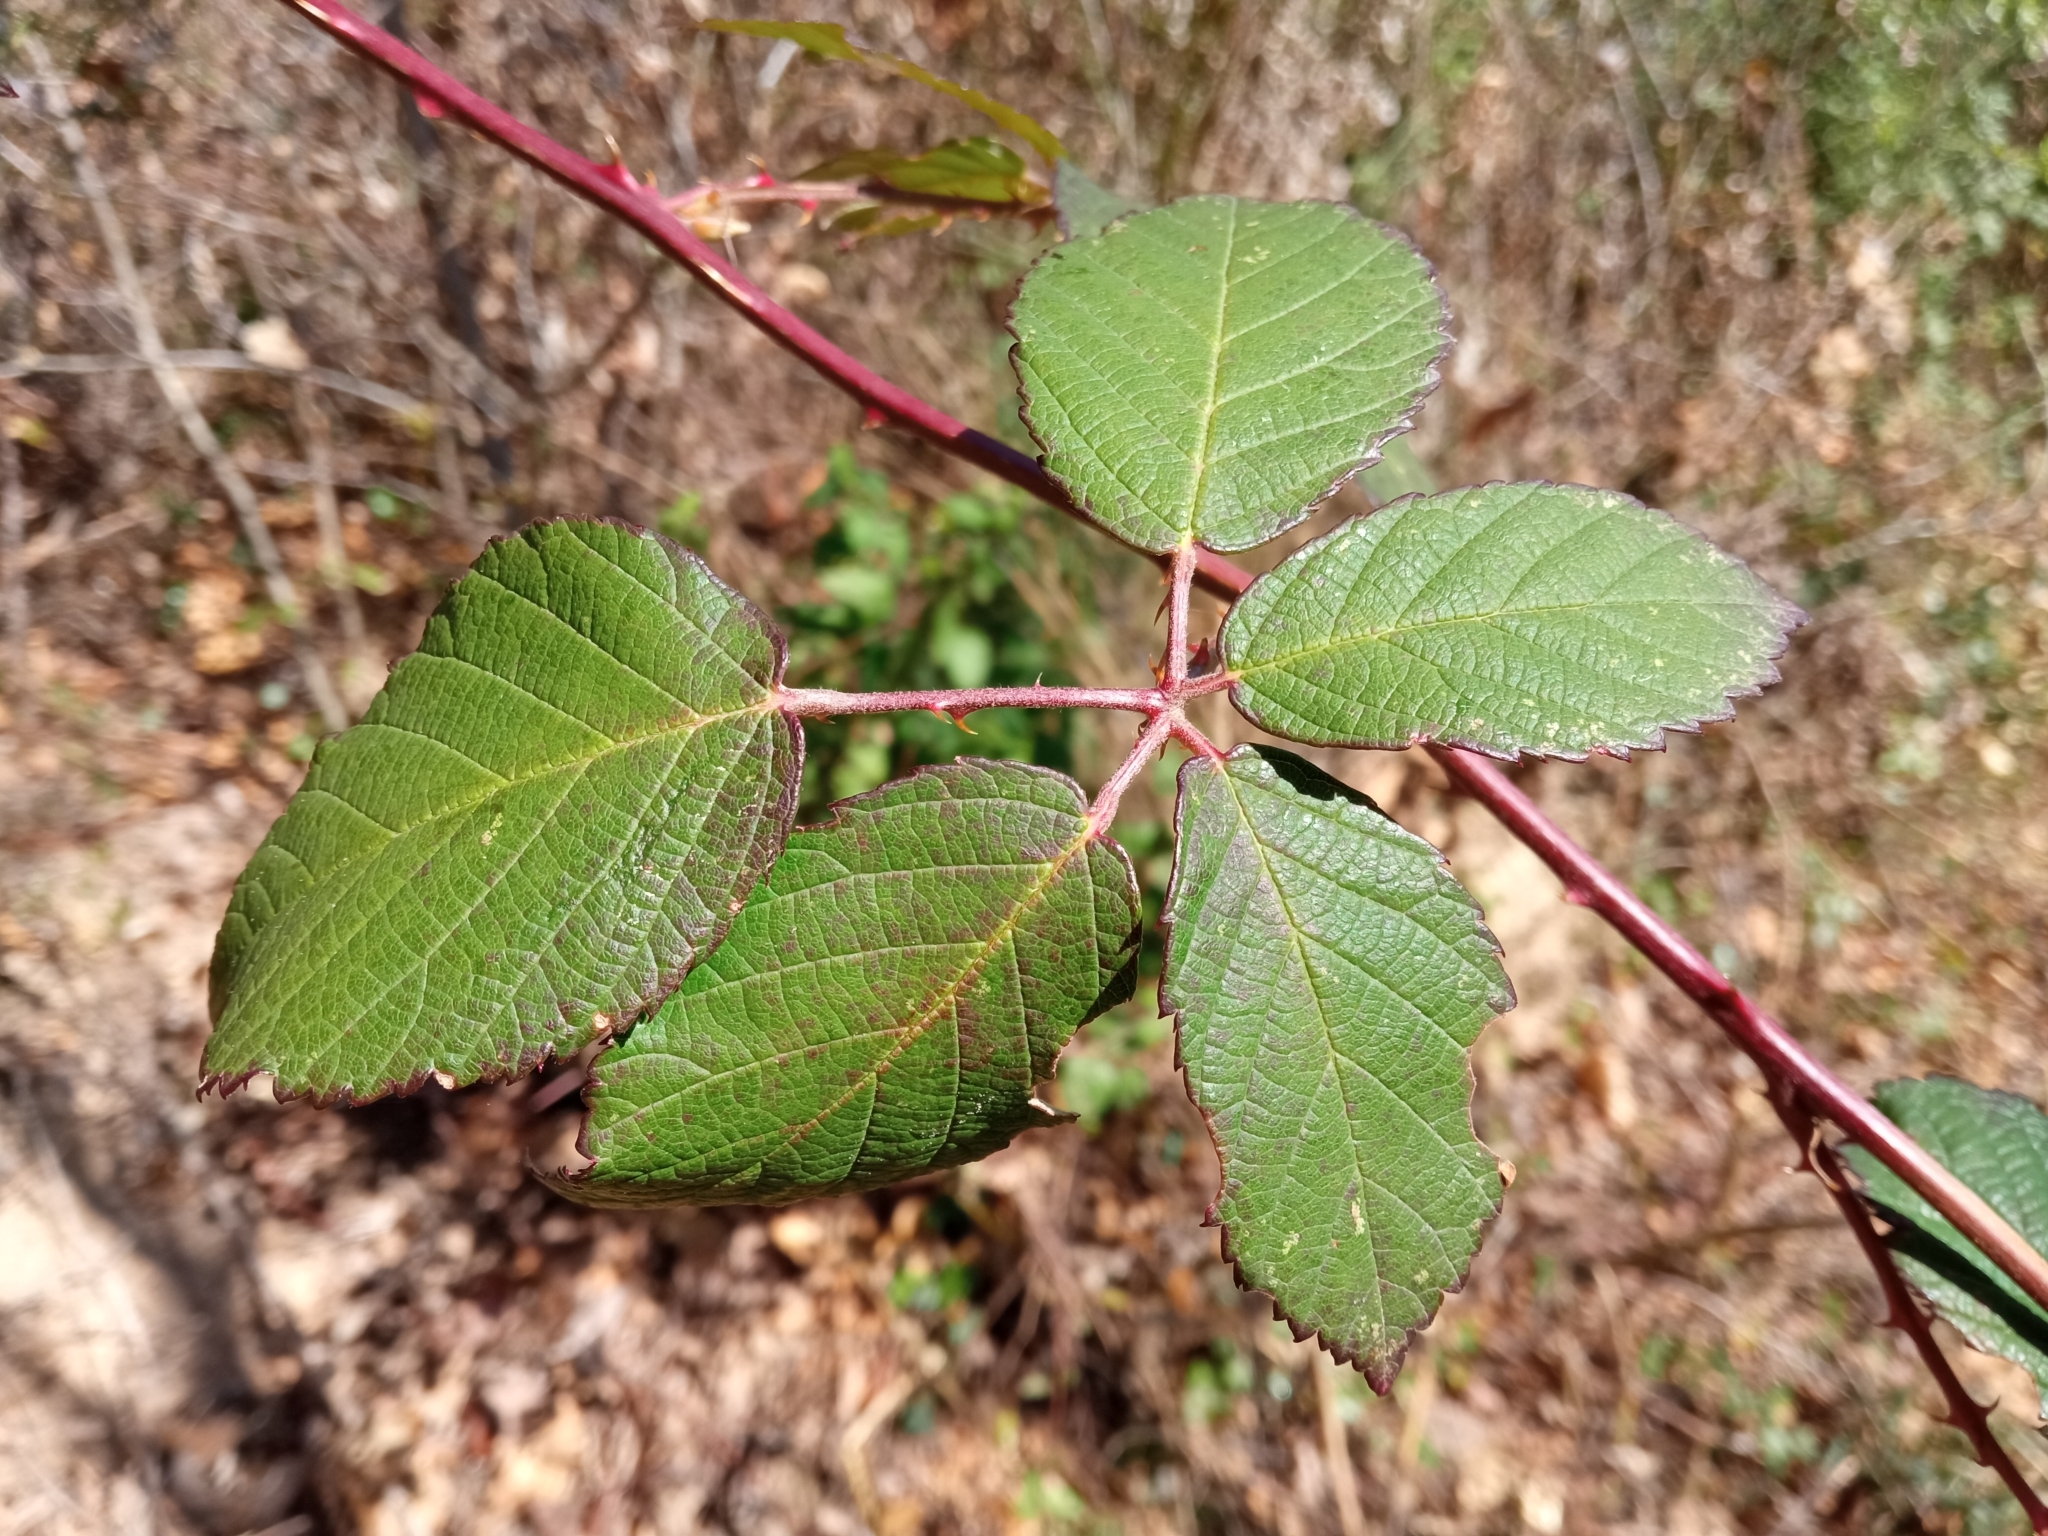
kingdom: Plantae
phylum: Tracheophyta
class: Magnoliopsida
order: Rosales
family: Rosaceae
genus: Rubus
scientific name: Rubus ulmifolius
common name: Elmleaf blackberry
